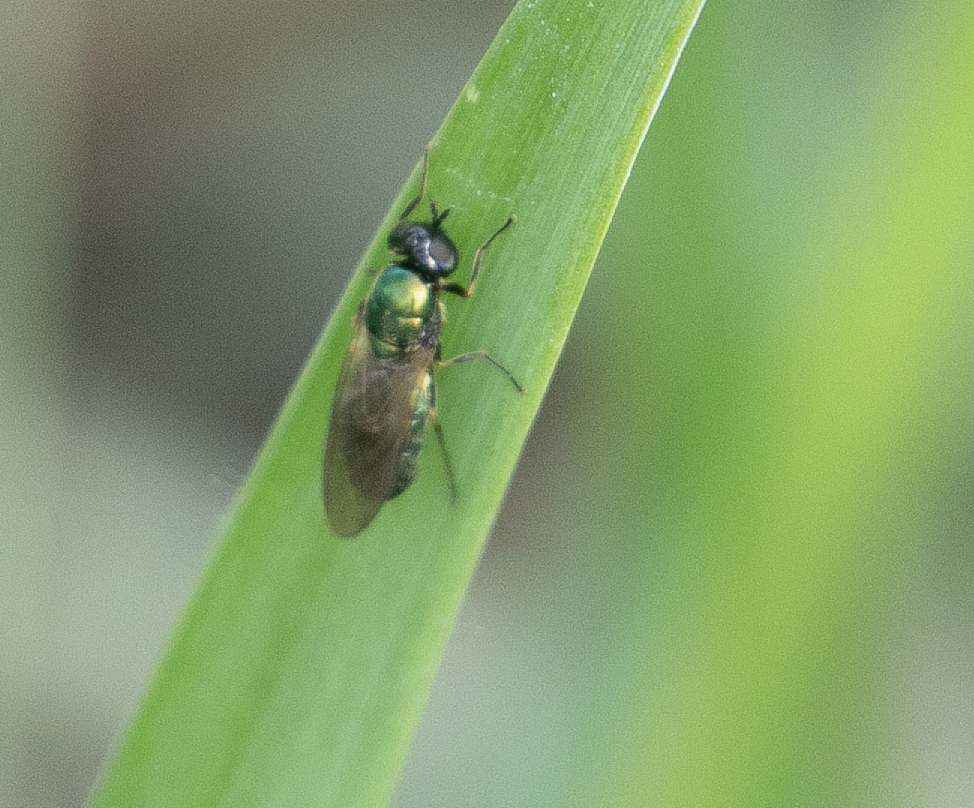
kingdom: Animalia
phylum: Arthropoda
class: Insecta
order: Diptera
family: Stratiomyidae
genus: Chloromyia
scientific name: Chloromyia formosa
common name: Soldier fly
